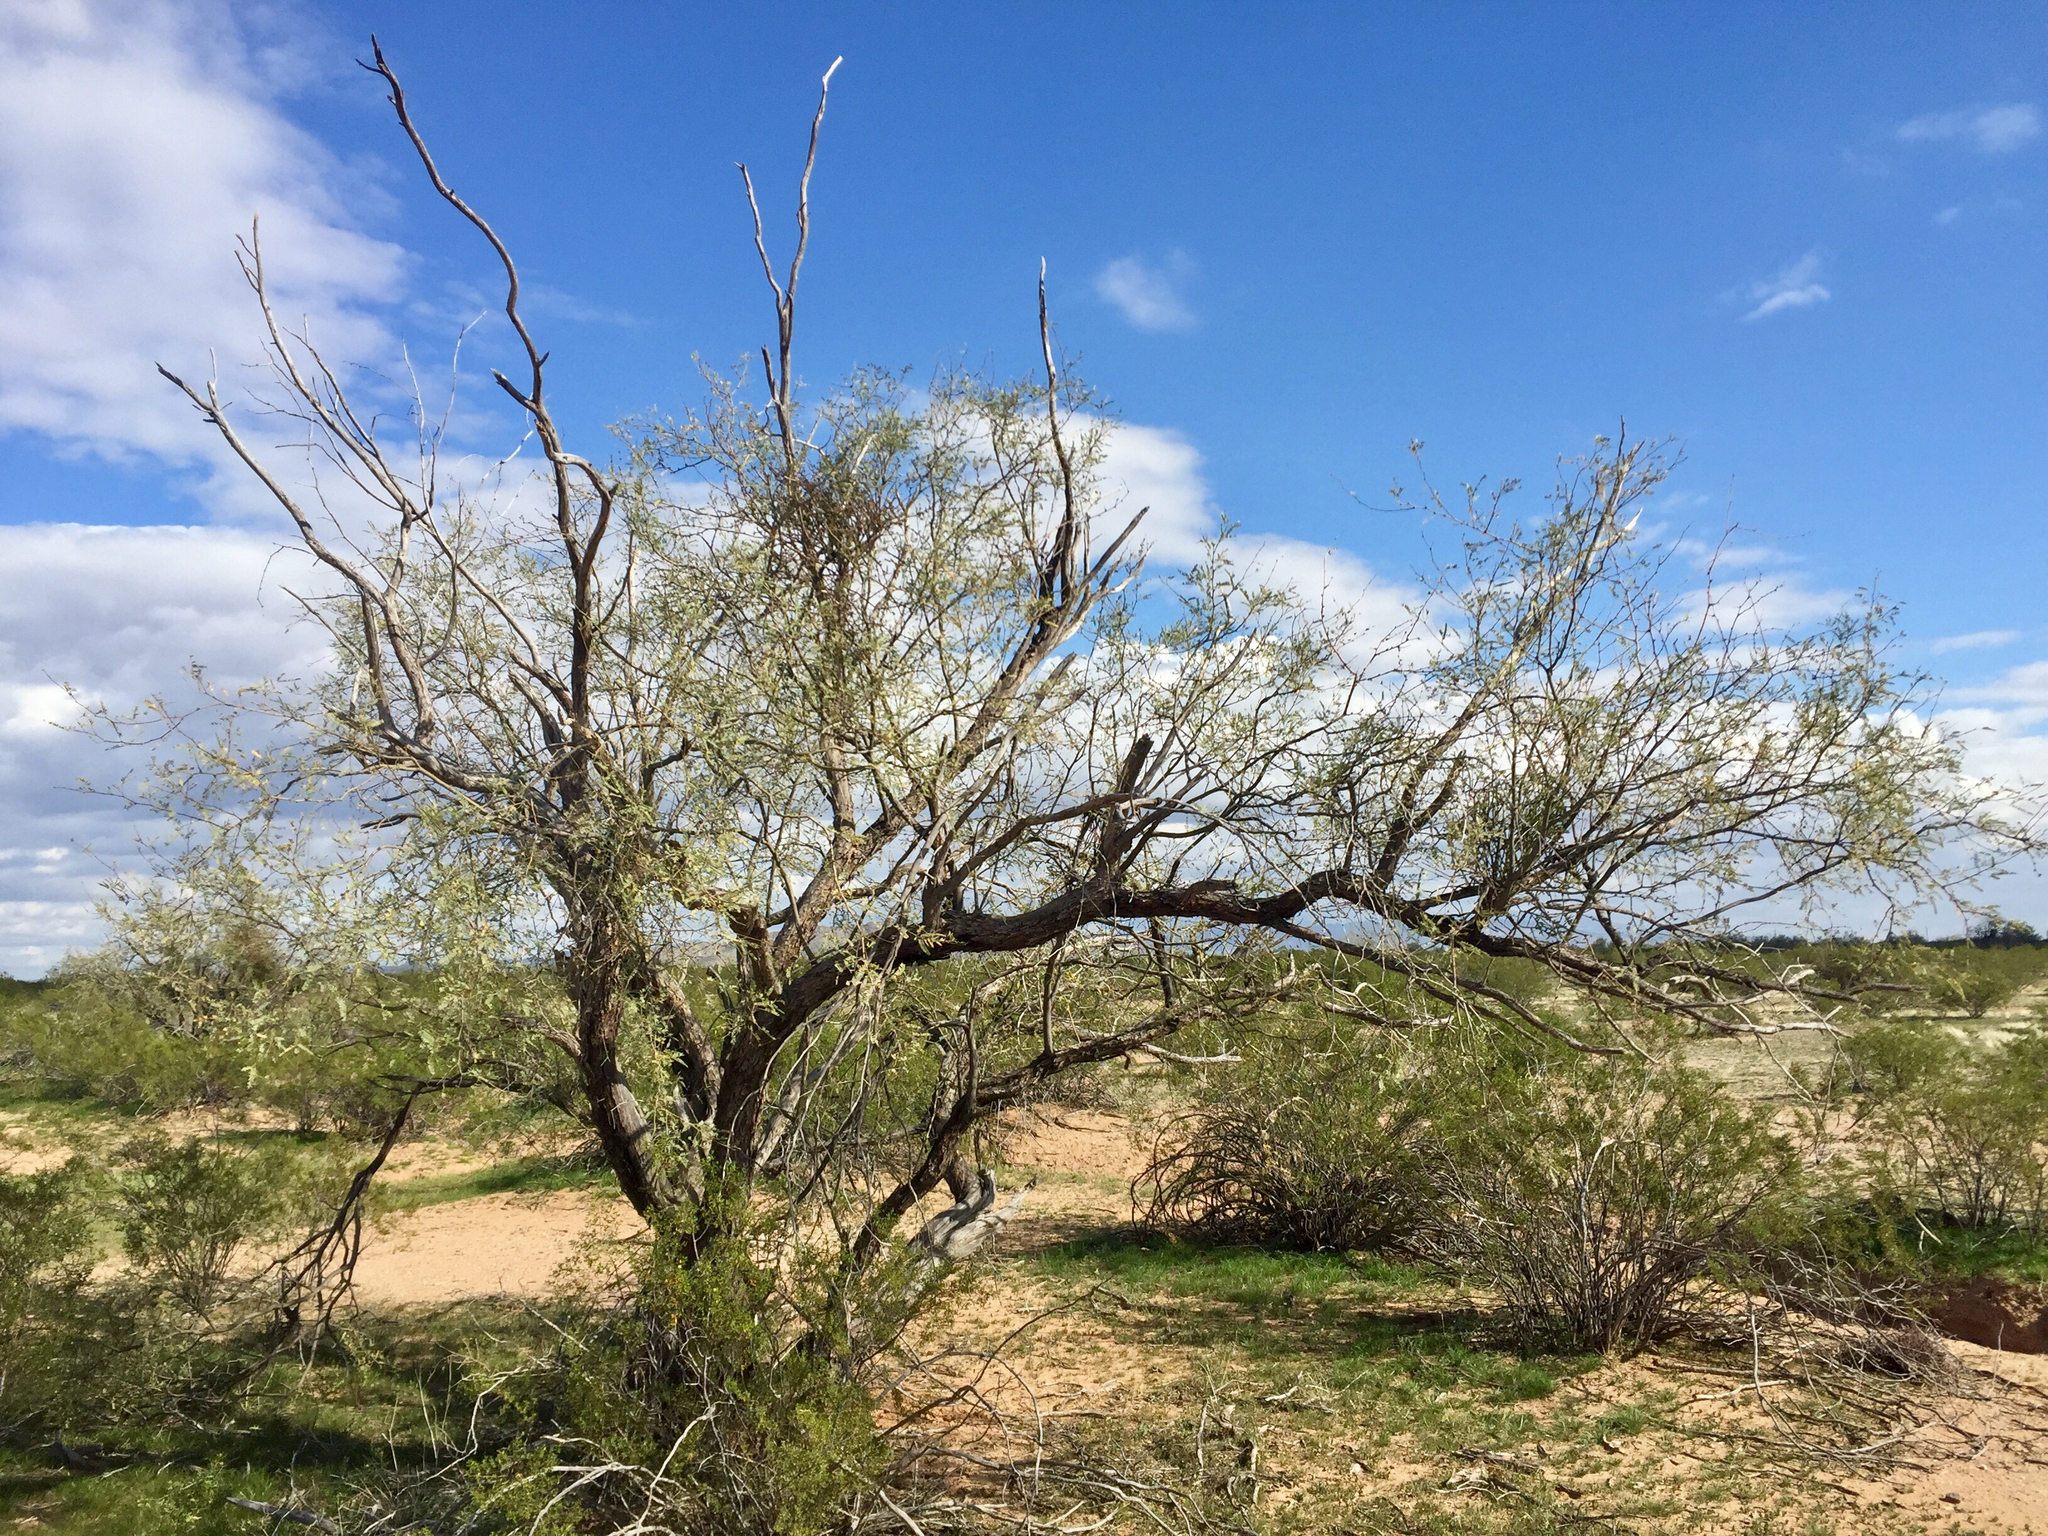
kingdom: Plantae
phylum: Tracheophyta
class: Magnoliopsida
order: Fabales
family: Fabaceae
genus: Prosopis
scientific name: Prosopis velutina
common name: Velvet mesquite
